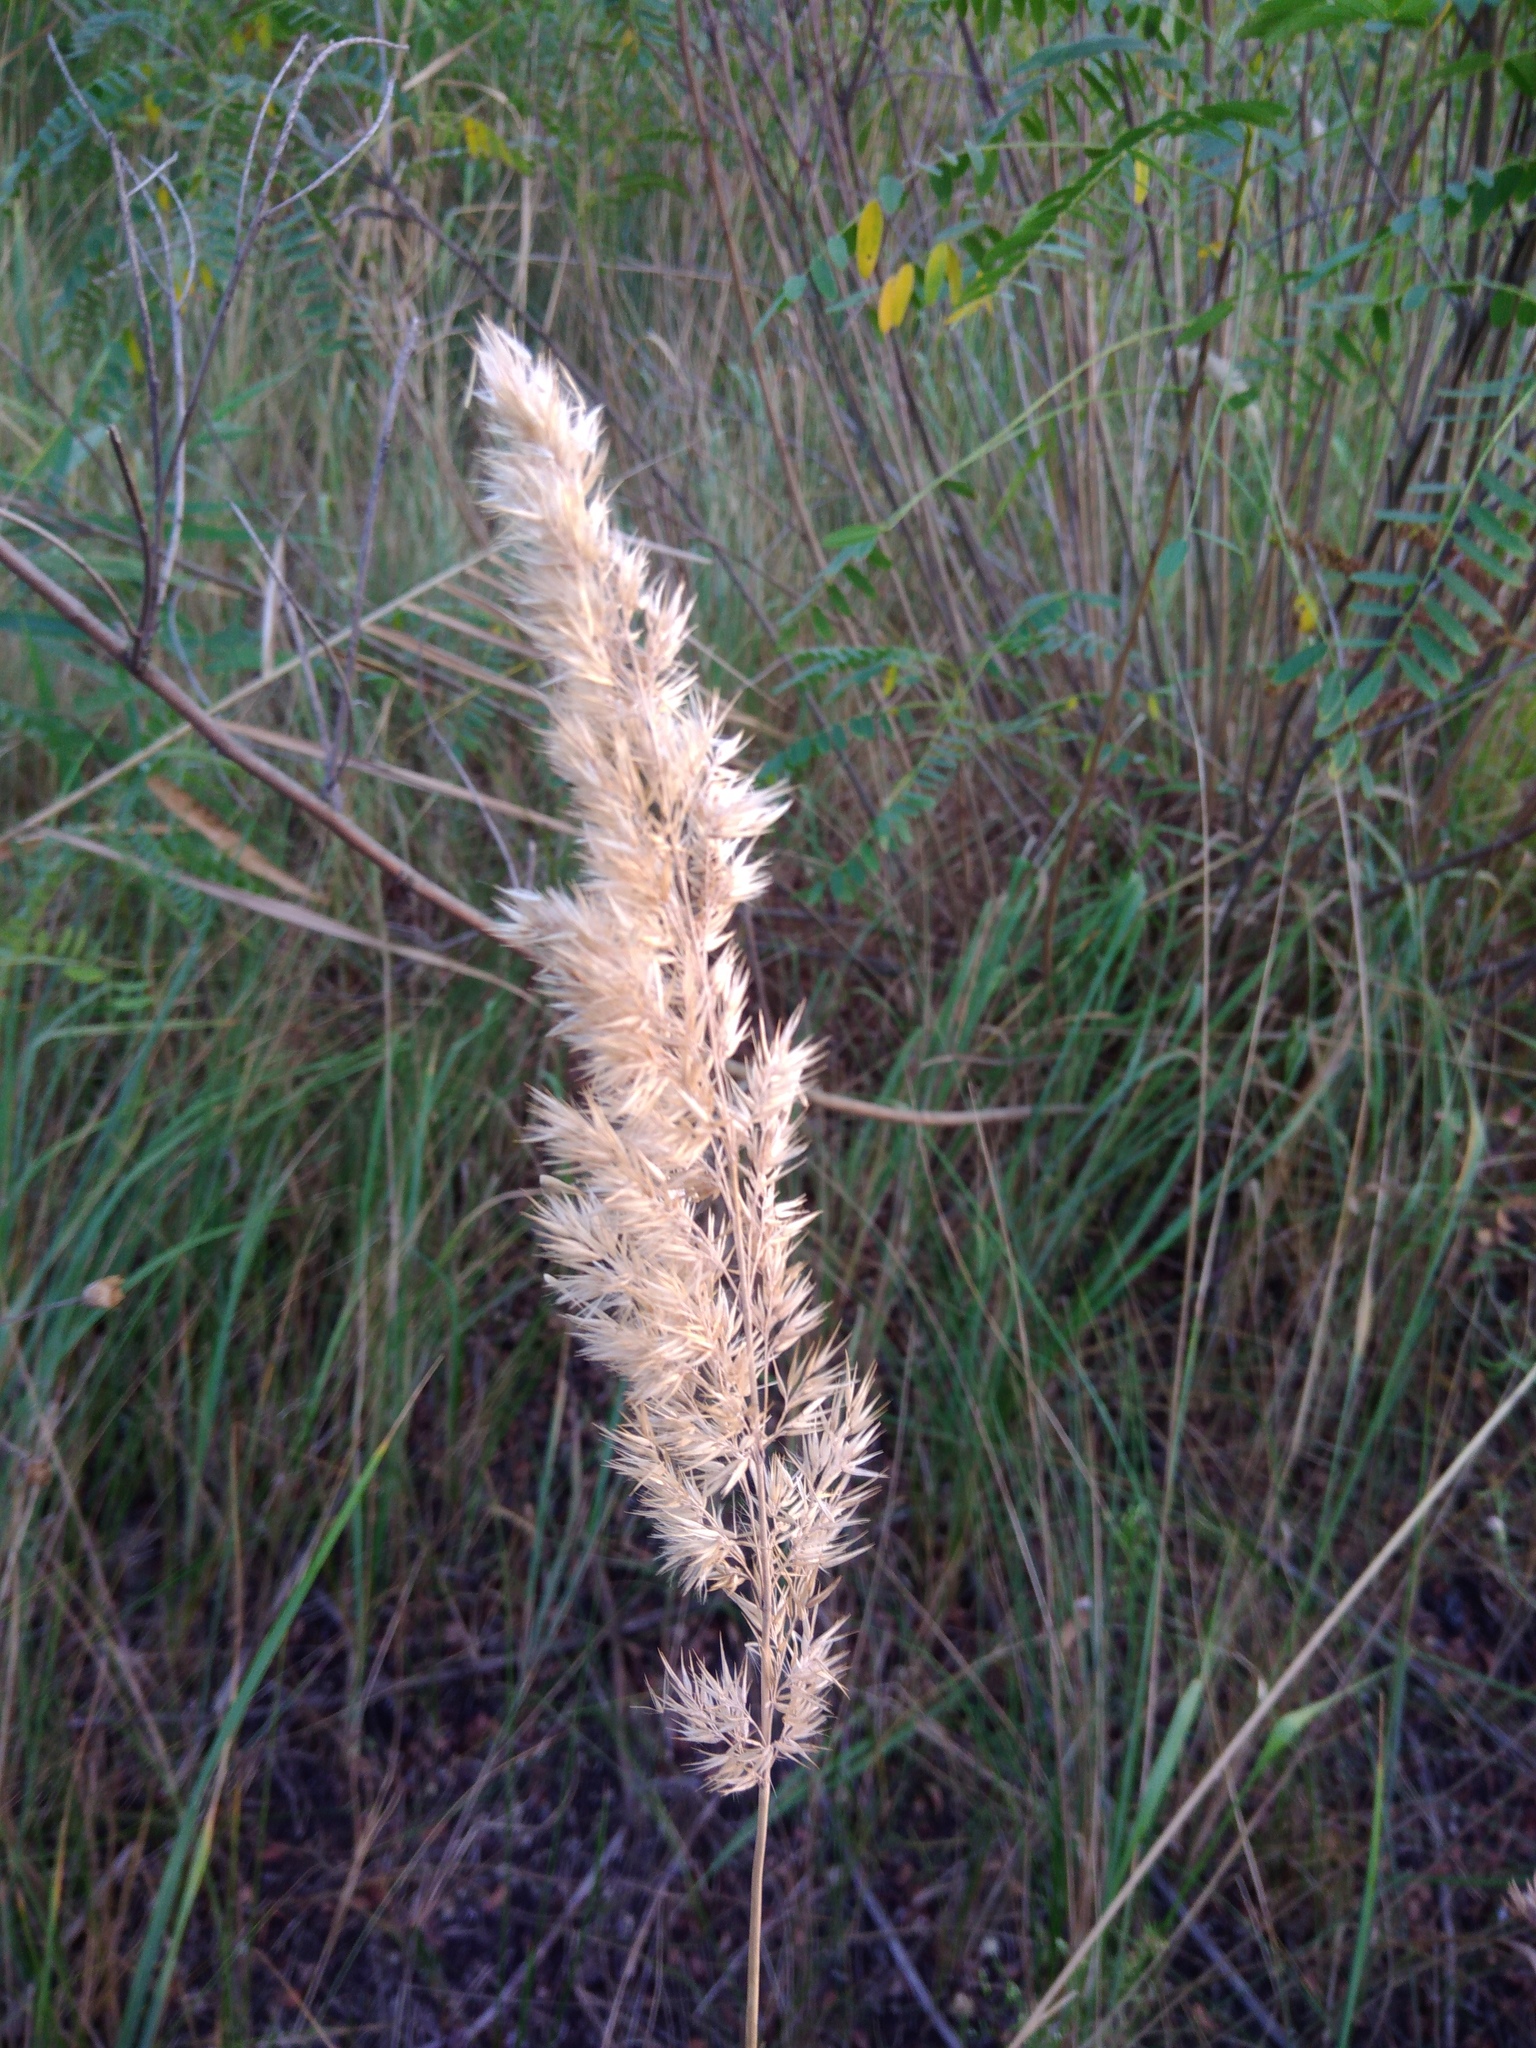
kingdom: Plantae
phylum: Tracheophyta
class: Liliopsida
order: Poales
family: Poaceae
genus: Calamagrostis
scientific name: Calamagrostis epigejos
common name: Wood small-reed
